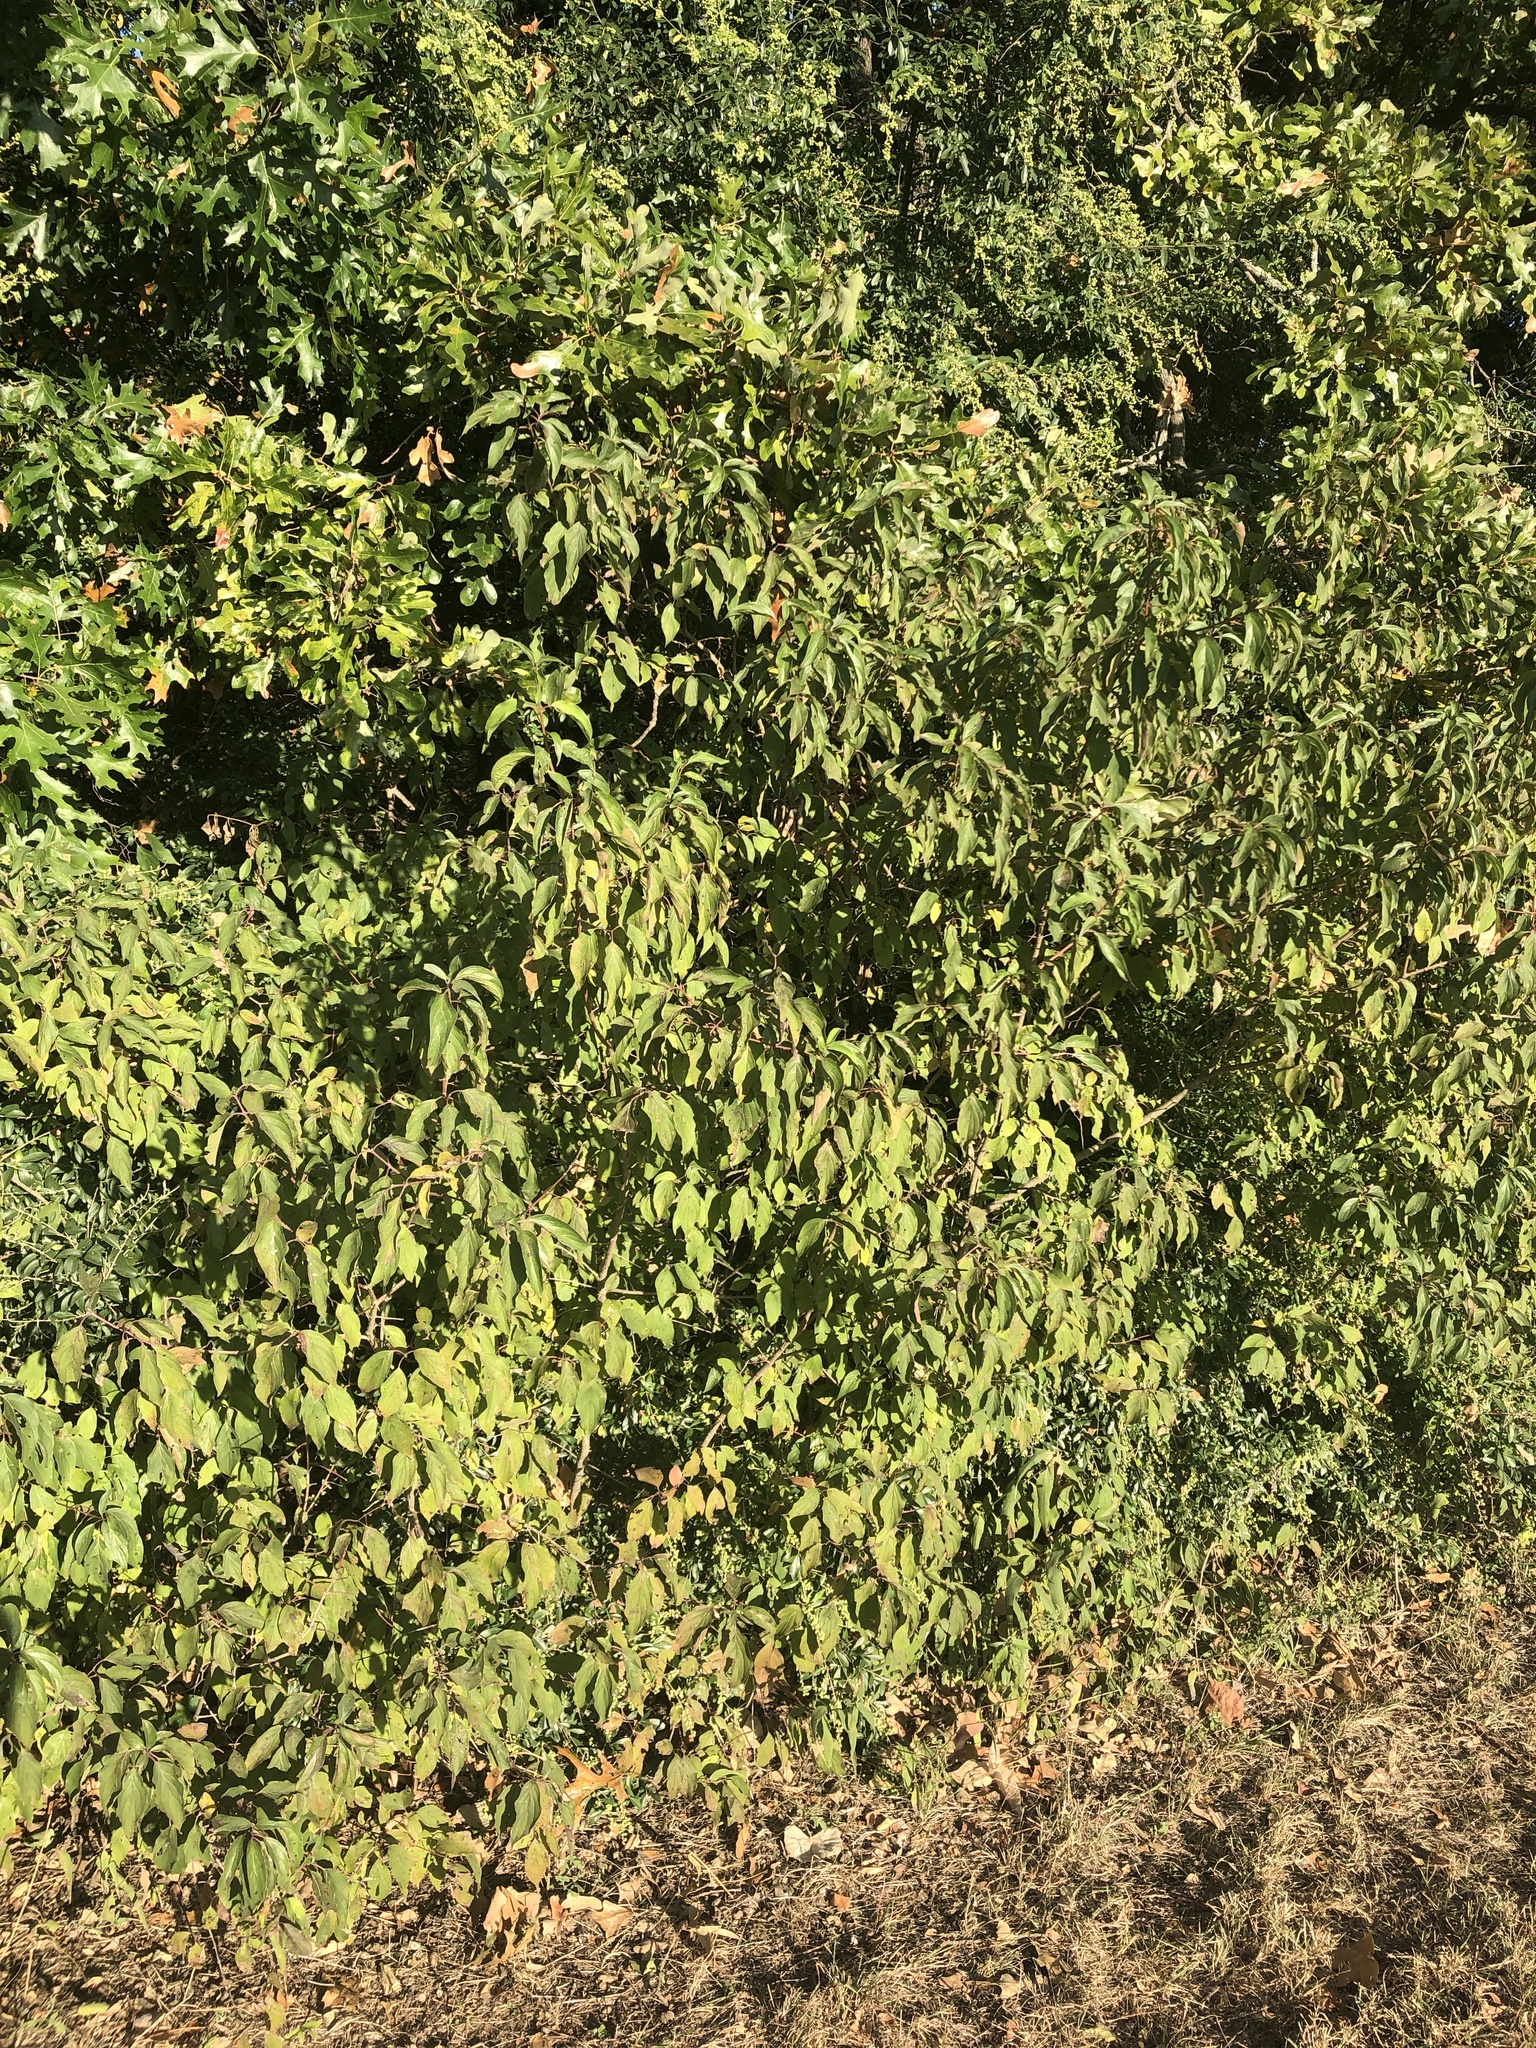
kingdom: Plantae
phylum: Tracheophyta
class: Magnoliopsida
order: Cornales
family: Cornaceae
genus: Cornus
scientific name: Cornus drummondii
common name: Rough-leaf dogwood
